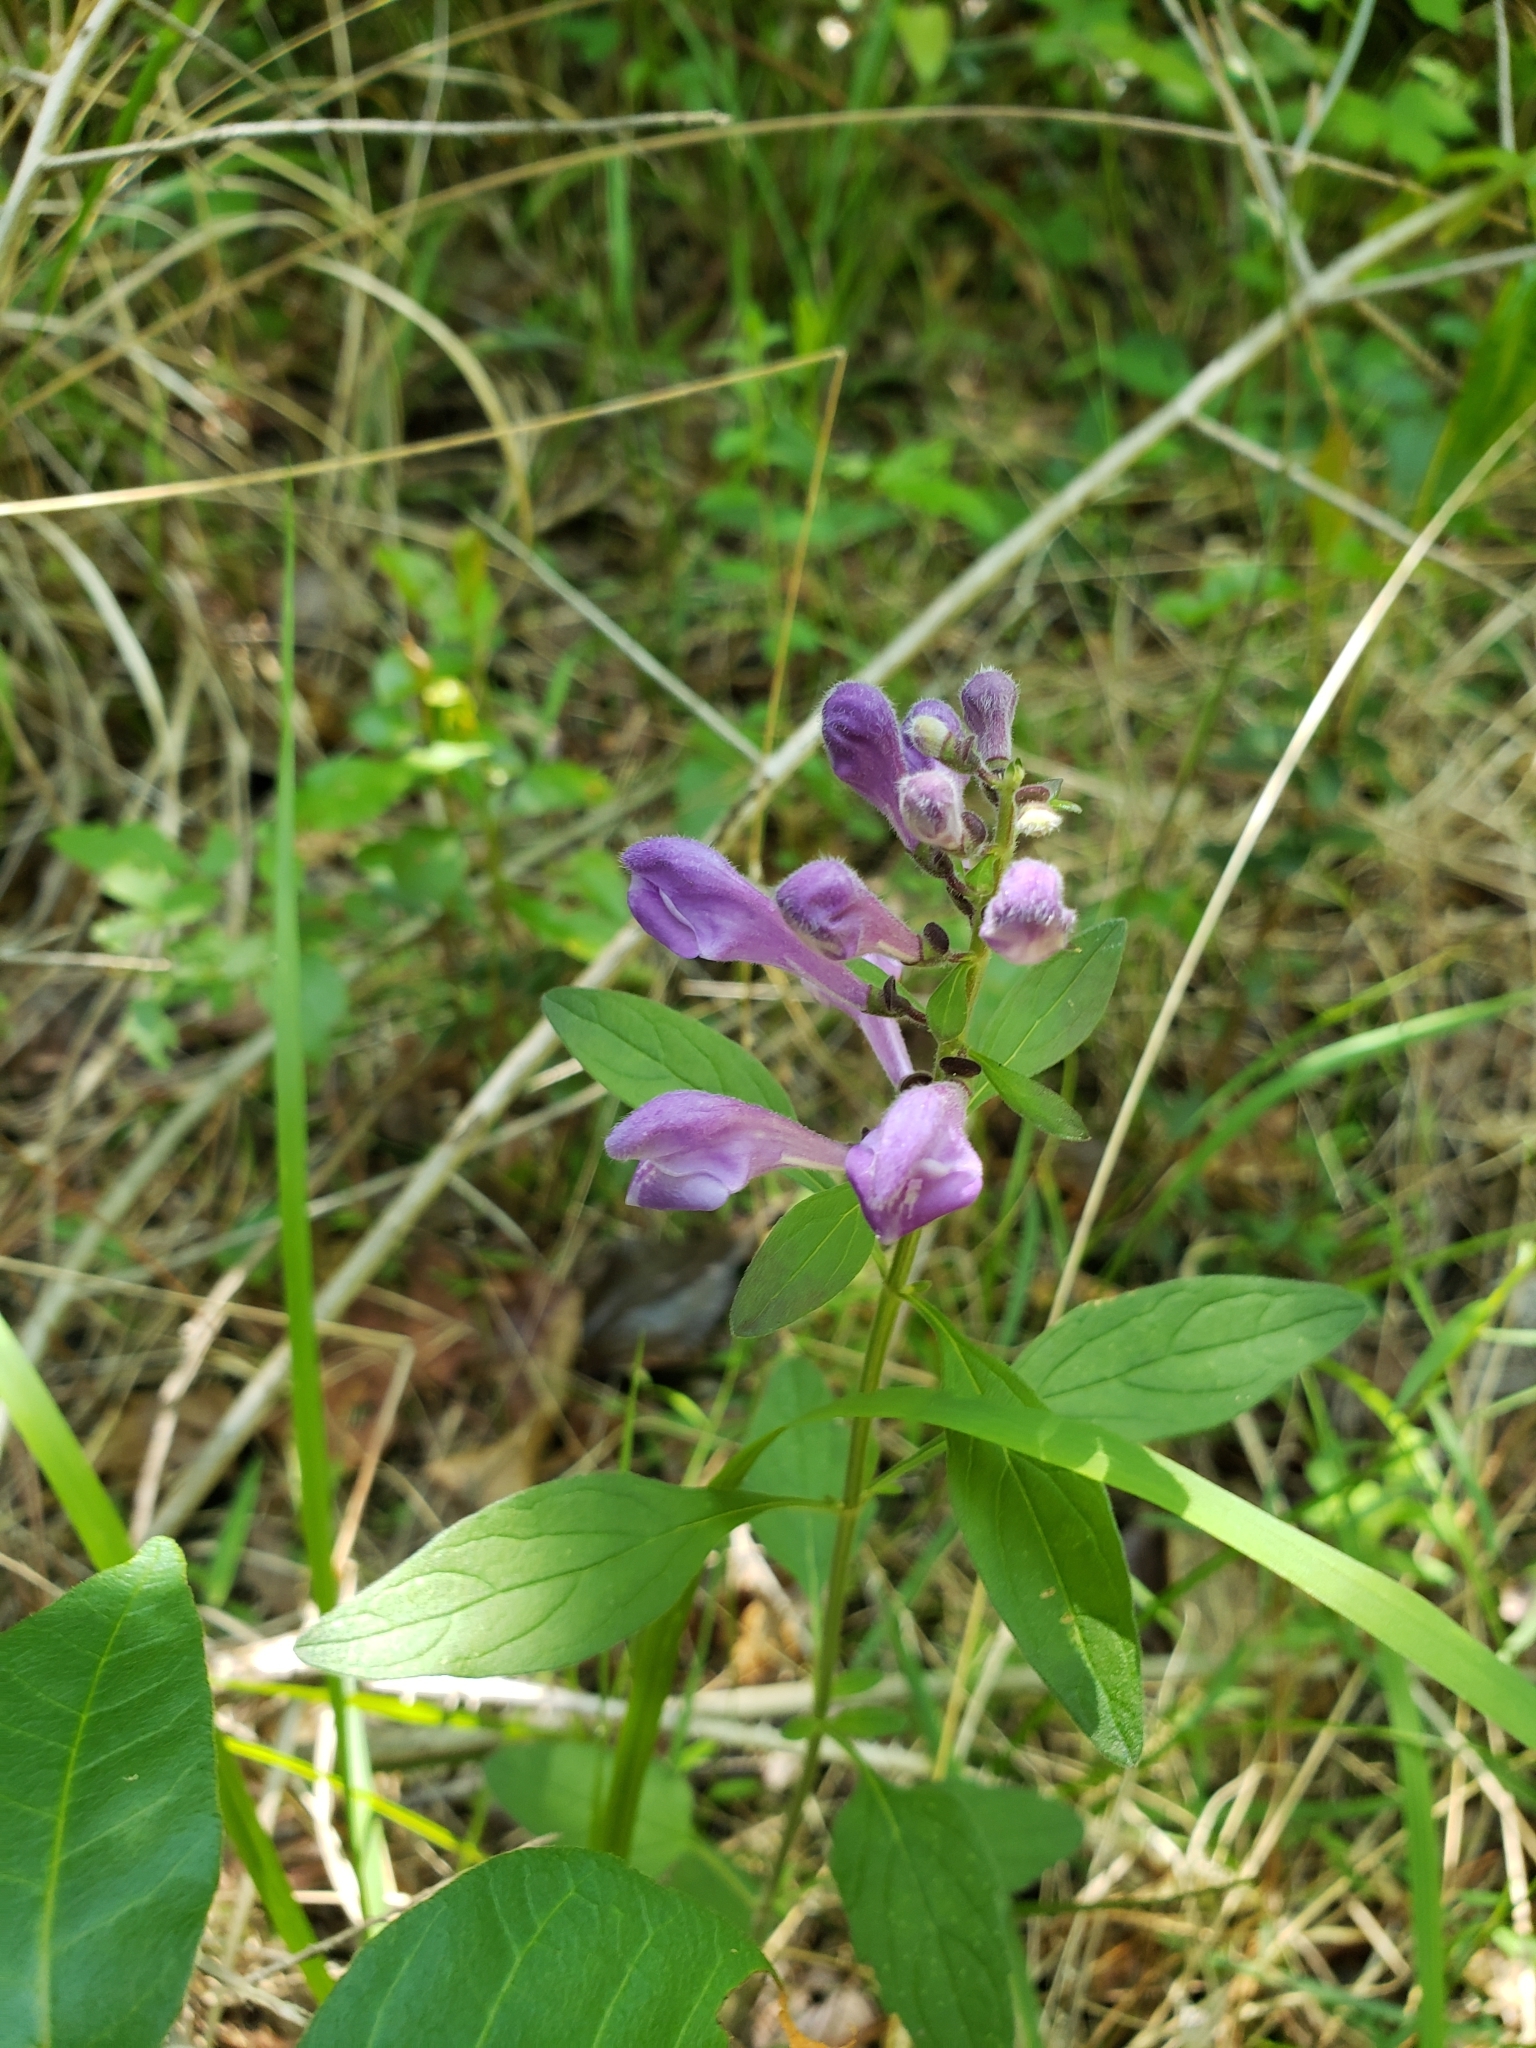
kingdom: Plantae
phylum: Tracheophyta
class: Magnoliopsida
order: Lamiales
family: Lamiaceae
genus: Scutellaria
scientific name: Scutellaria integrifolia
